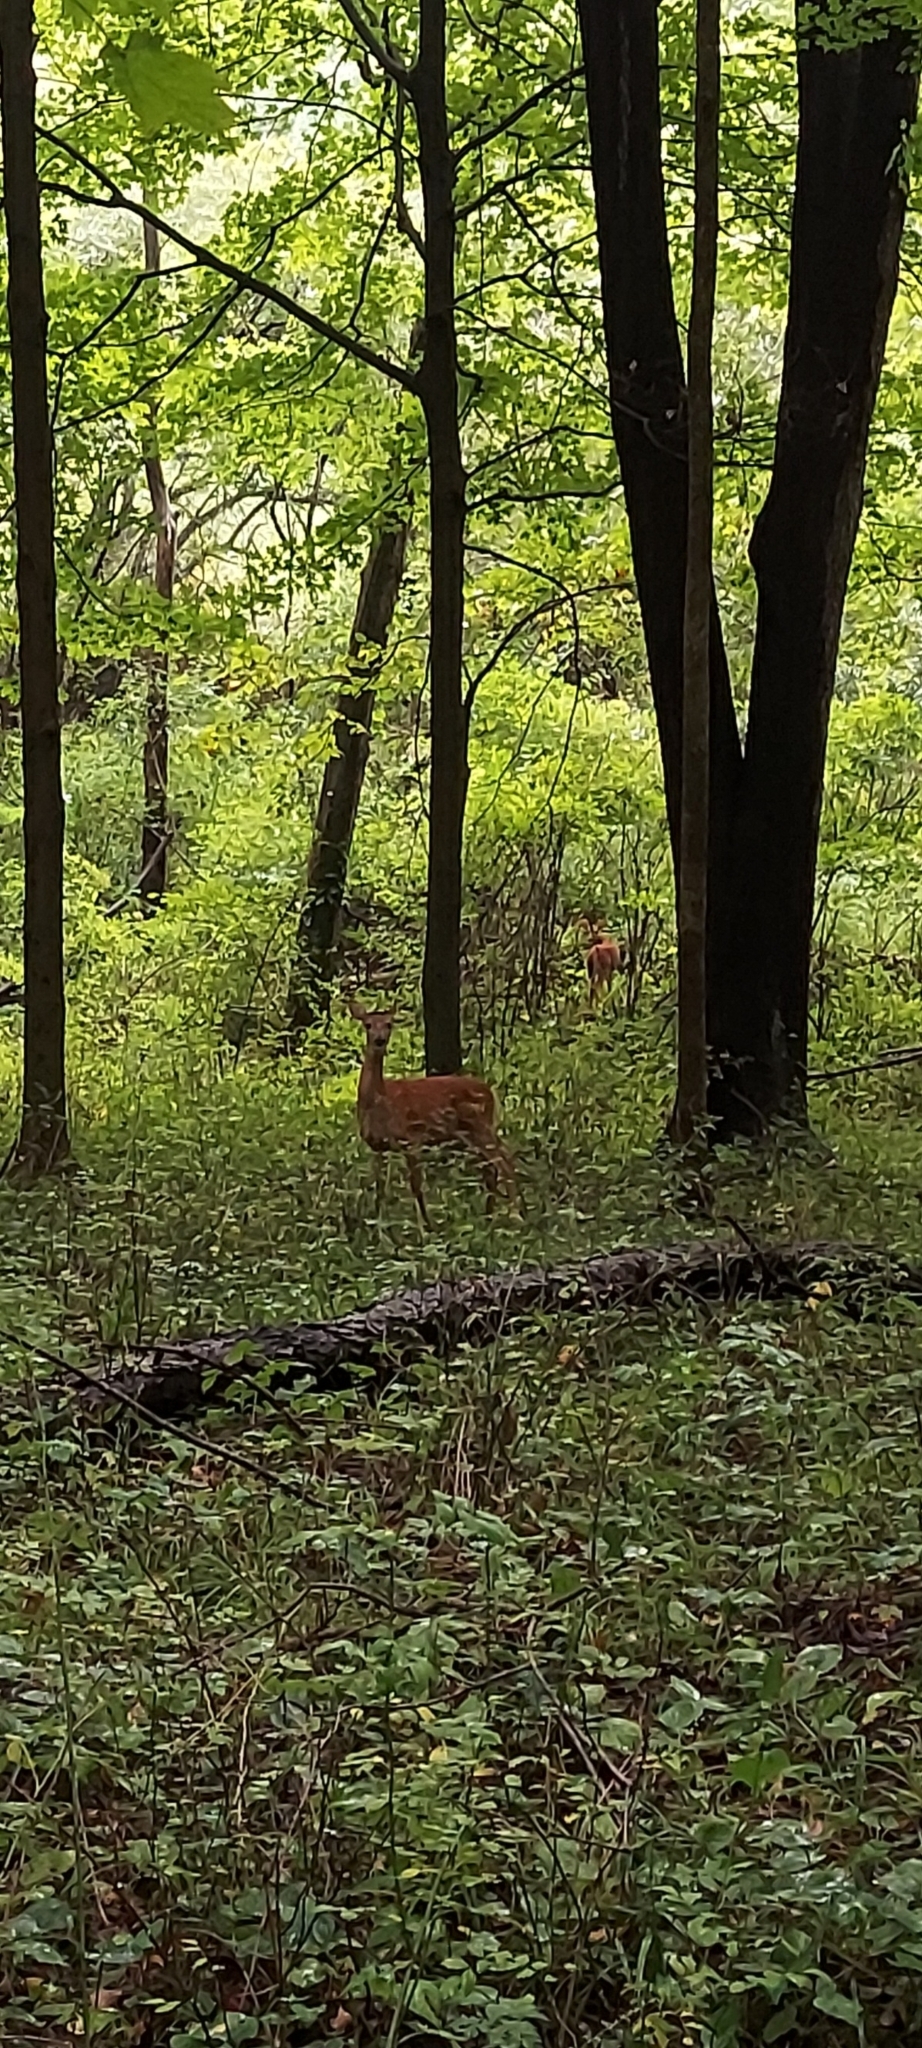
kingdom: Animalia
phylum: Chordata
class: Mammalia
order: Artiodactyla
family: Cervidae
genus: Odocoileus
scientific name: Odocoileus virginianus
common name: White-tailed deer
